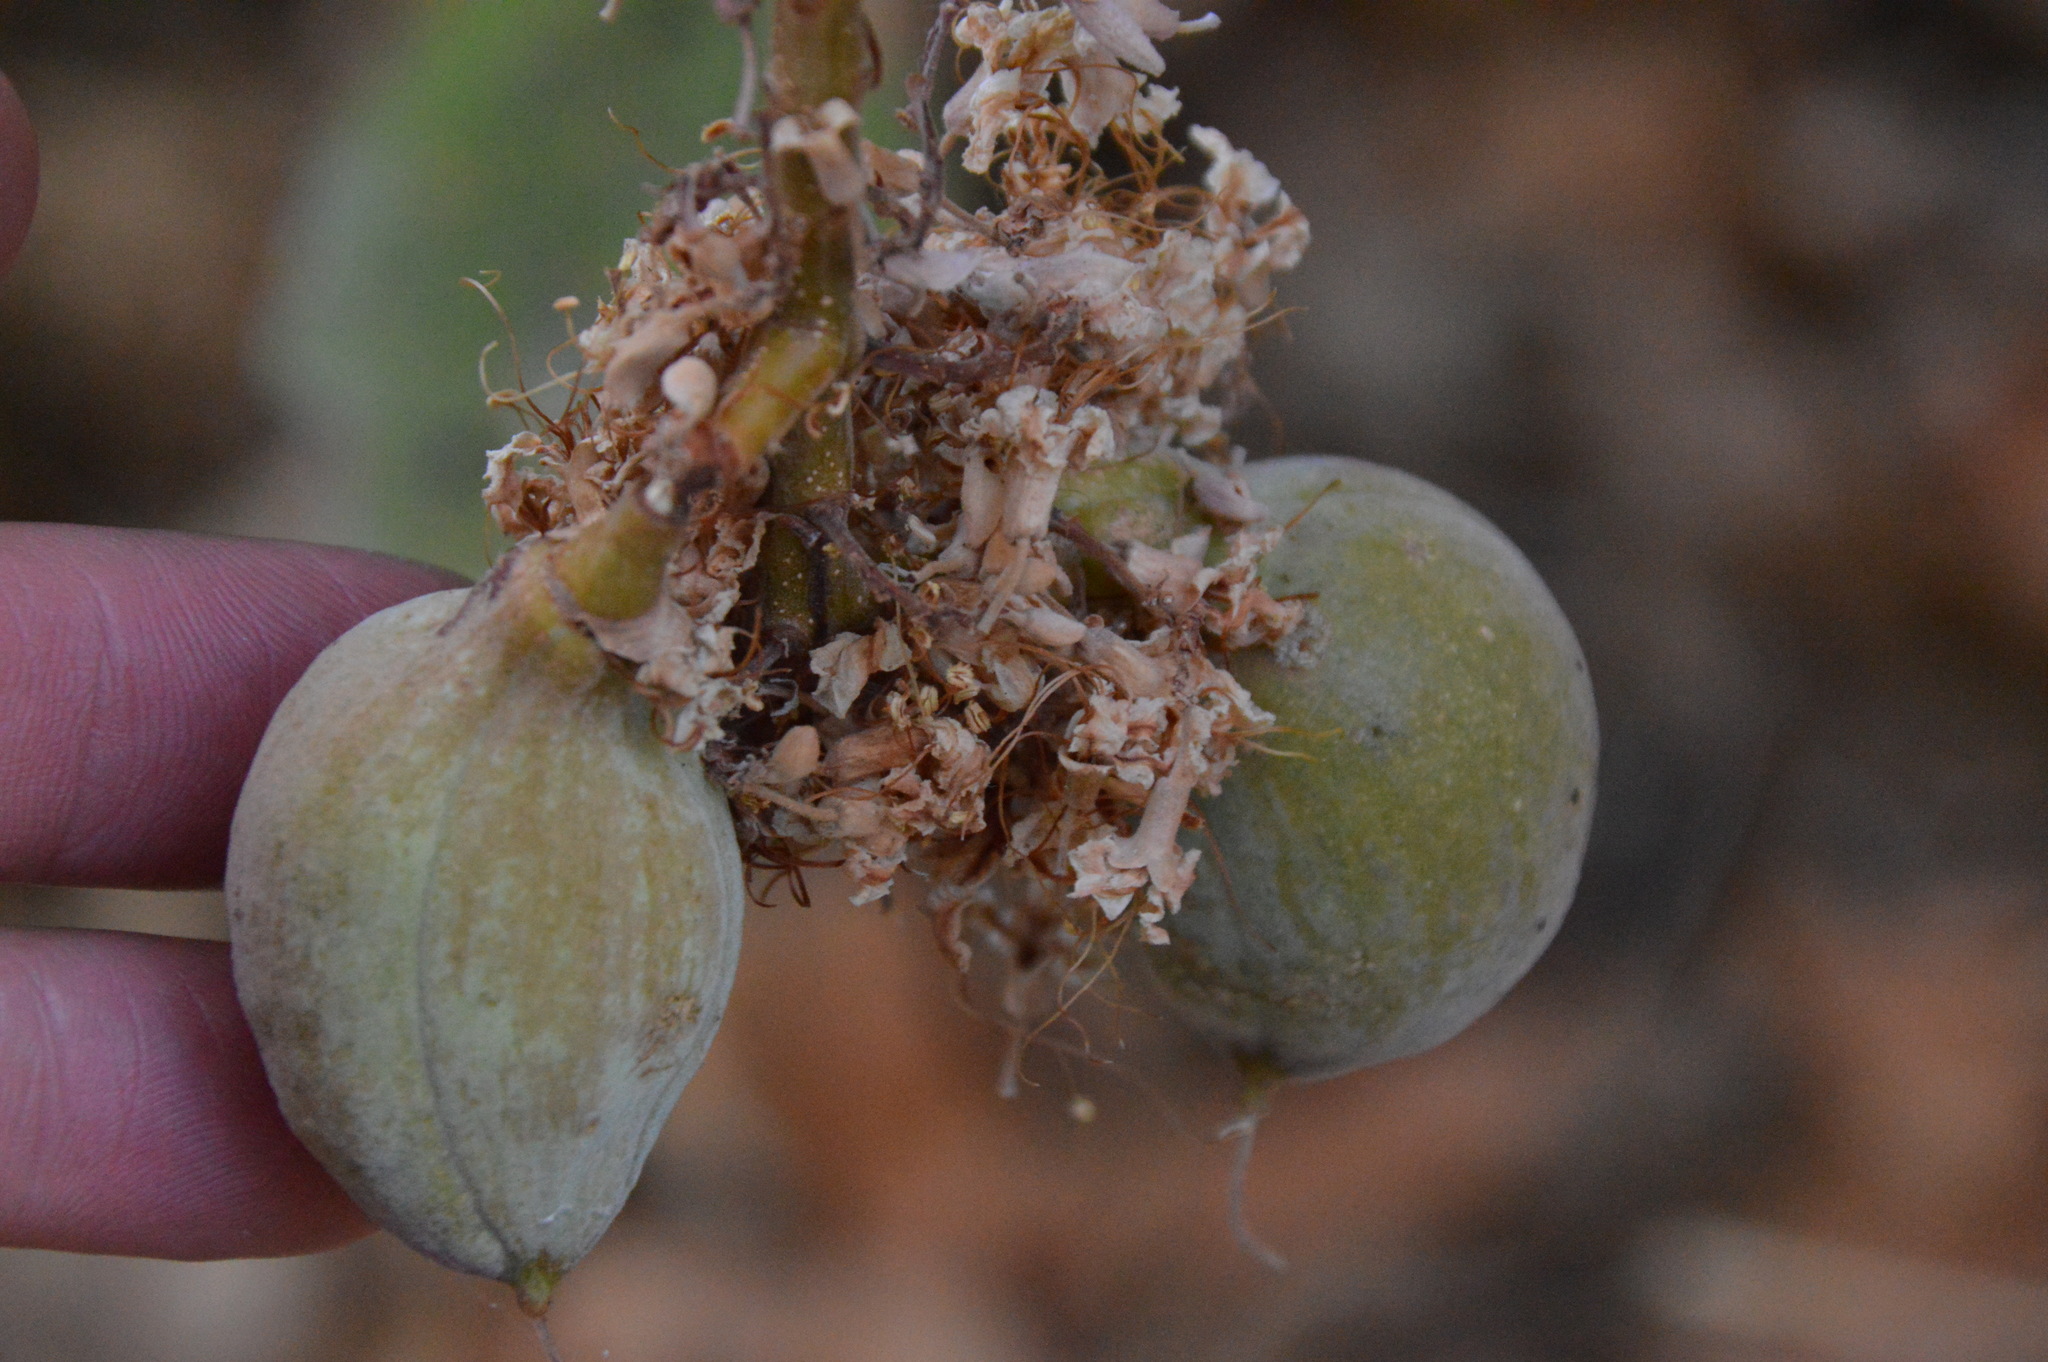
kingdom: Plantae
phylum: Tracheophyta
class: Magnoliopsida
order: Sapindales
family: Sapindaceae
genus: Aesculus
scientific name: Aesculus californica
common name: California buckeye
